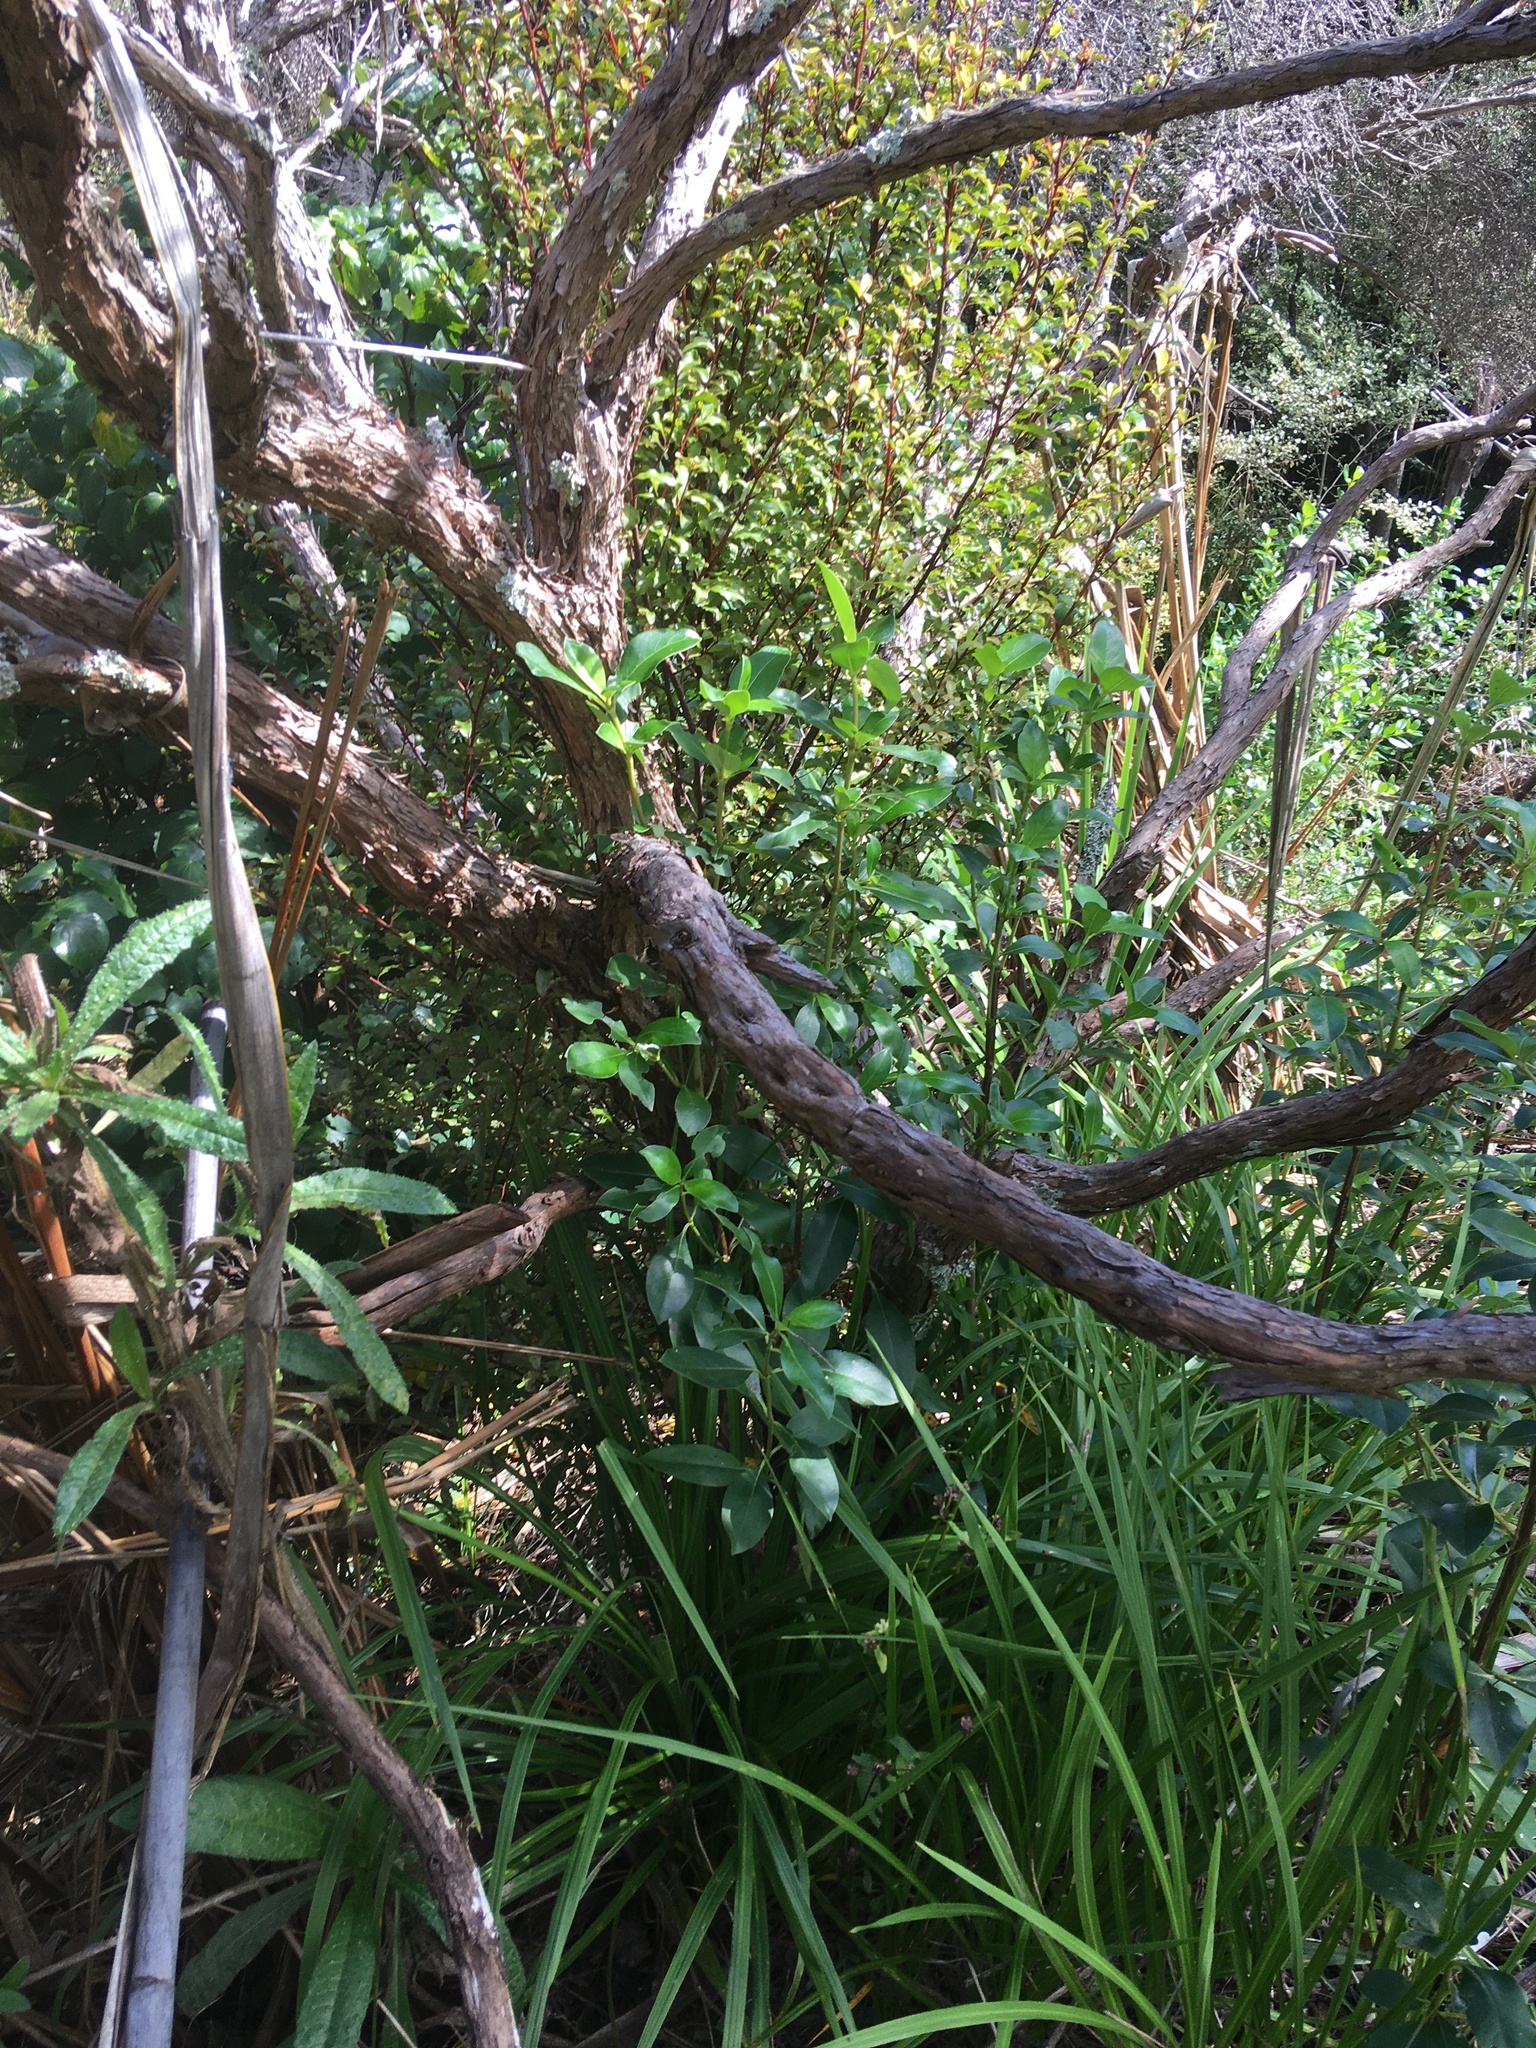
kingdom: Plantae
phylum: Tracheophyta
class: Magnoliopsida
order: Gentianales
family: Rubiaceae
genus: Coprosma
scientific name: Coprosma robusta
